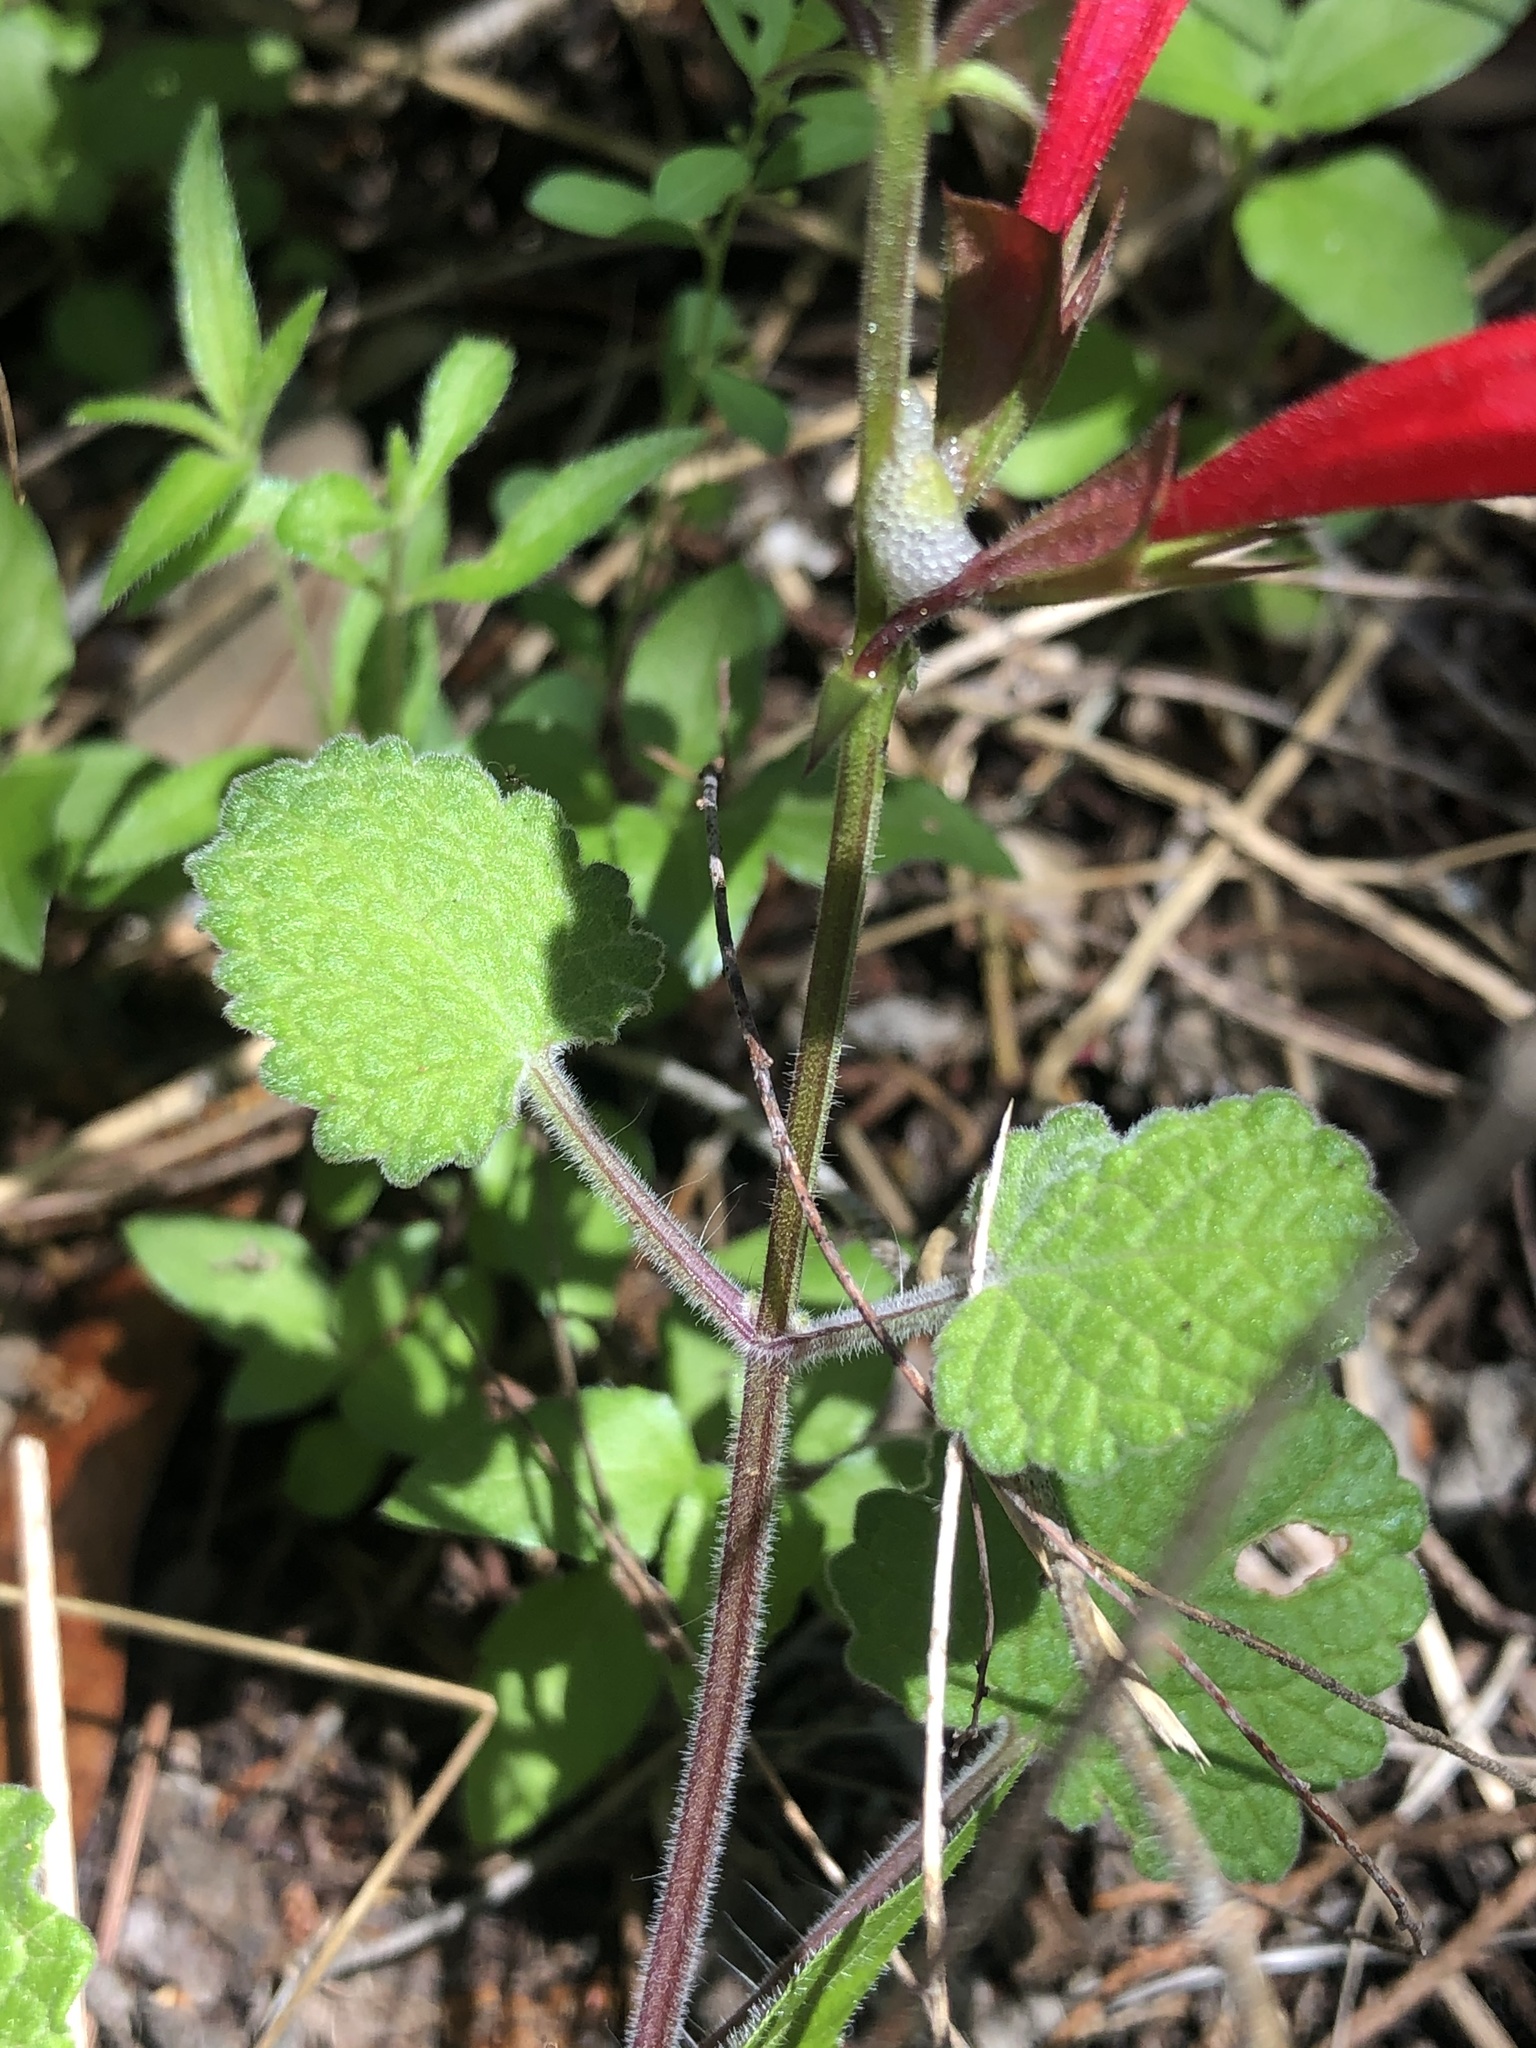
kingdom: Plantae
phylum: Tracheophyta
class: Magnoliopsida
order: Lamiales
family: Lamiaceae
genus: Salvia
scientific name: Salvia roemeriana
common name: Cedar sage
